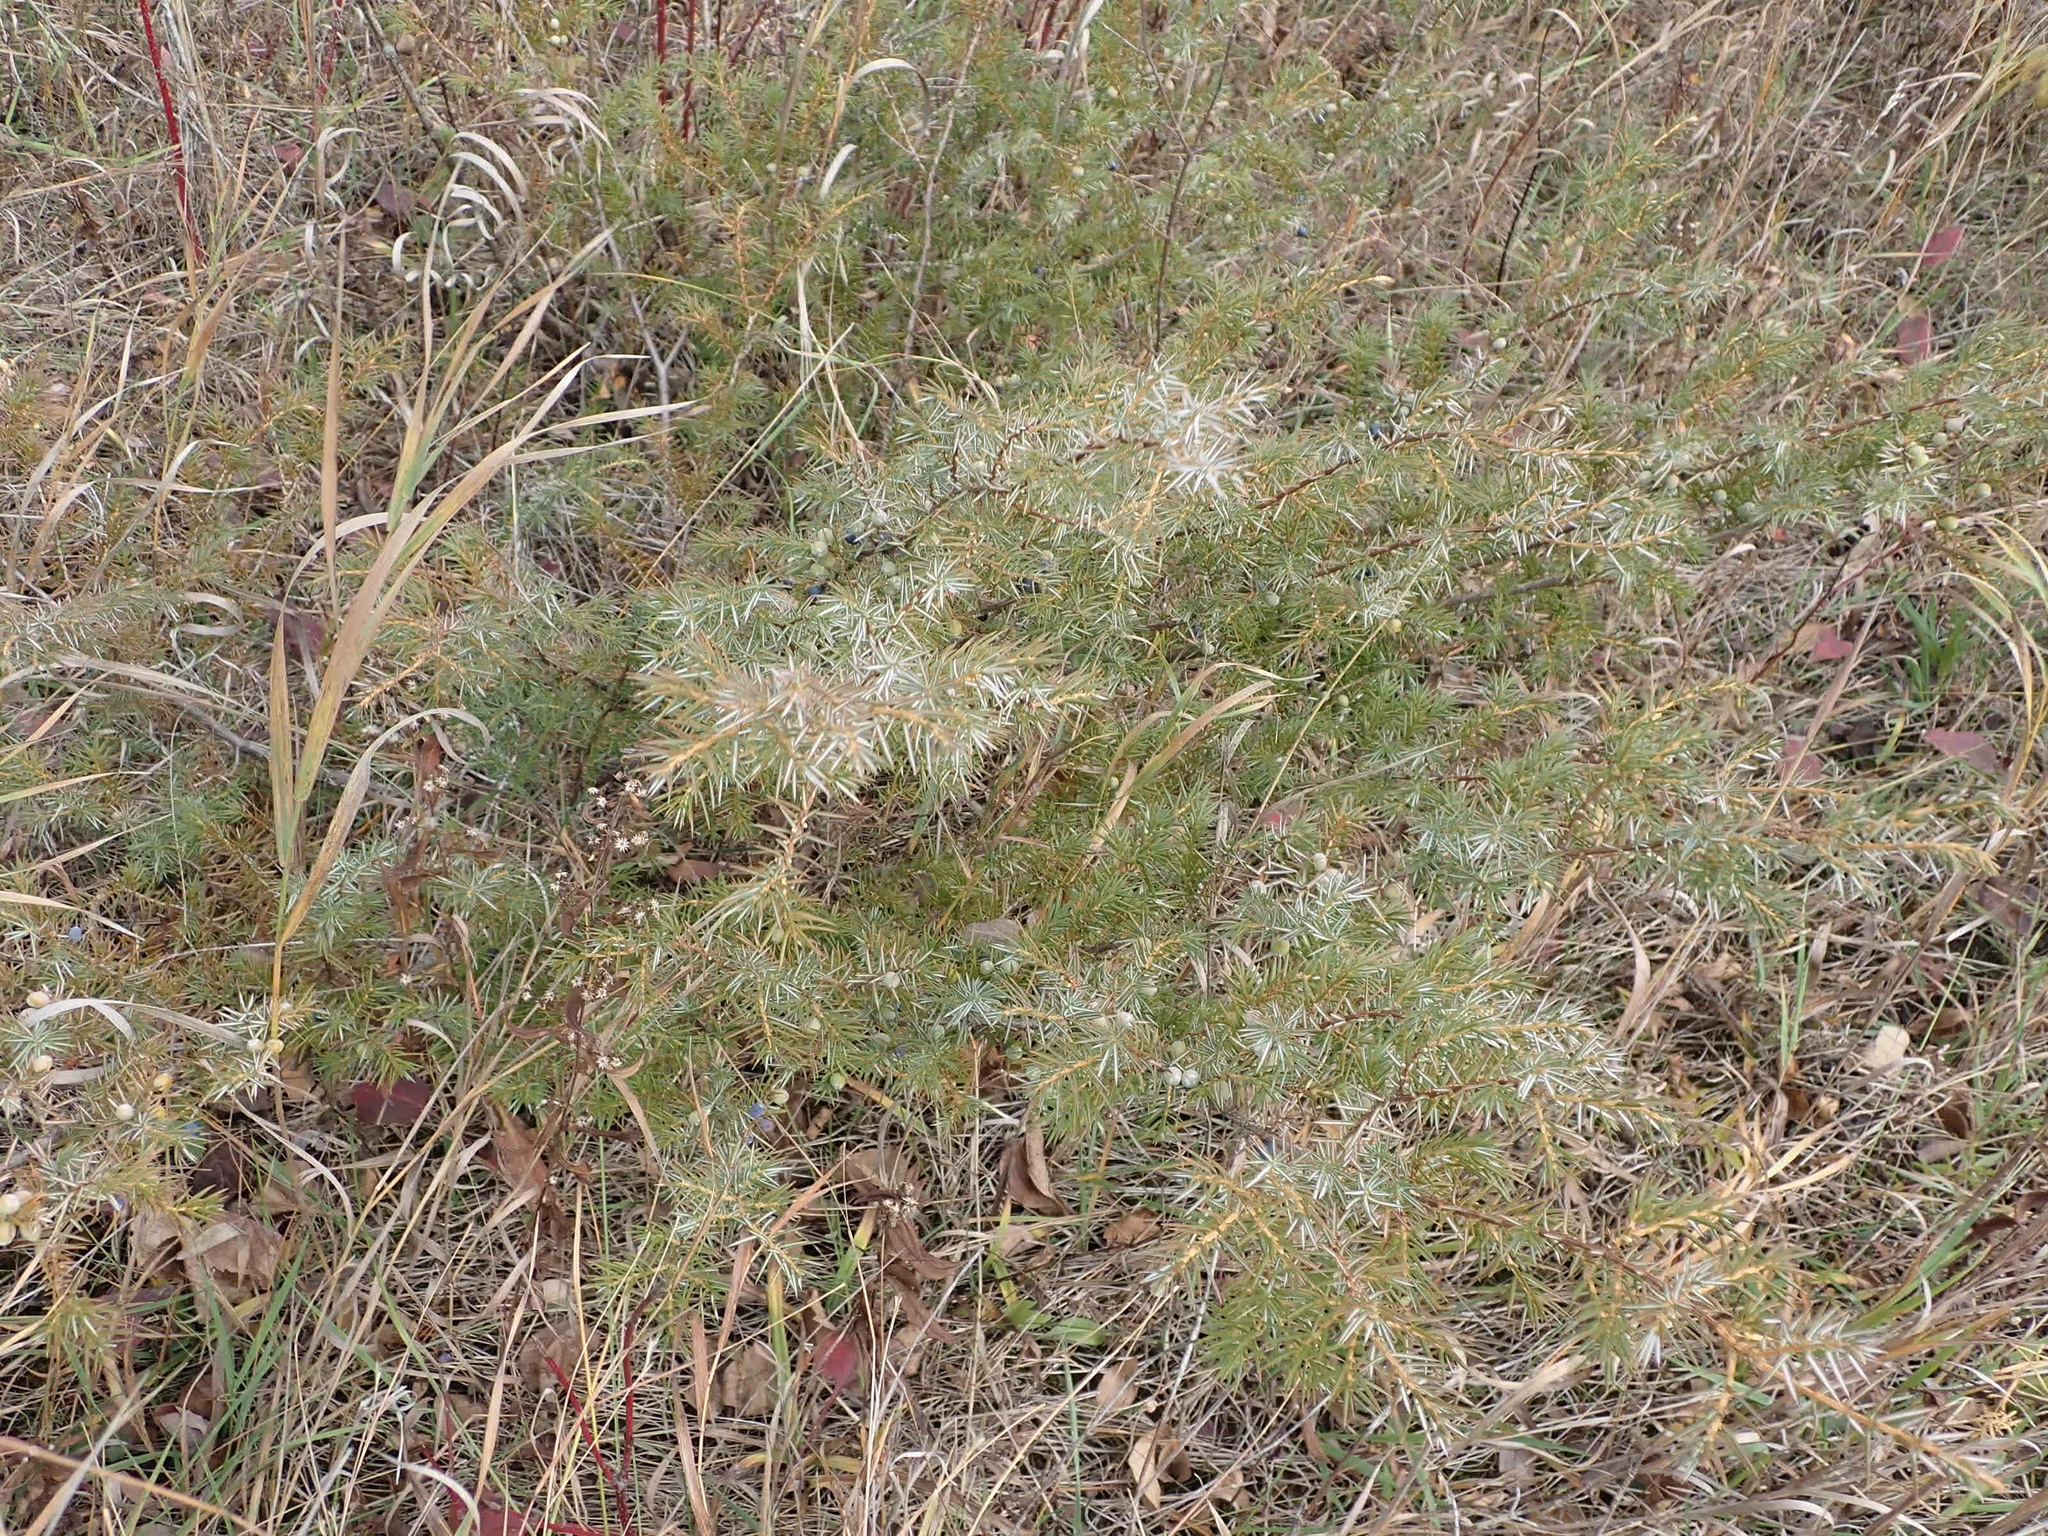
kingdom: Plantae
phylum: Tracheophyta
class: Pinopsida
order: Pinales
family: Cupressaceae
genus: Juniperus
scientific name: Juniperus communis
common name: Common juniper
